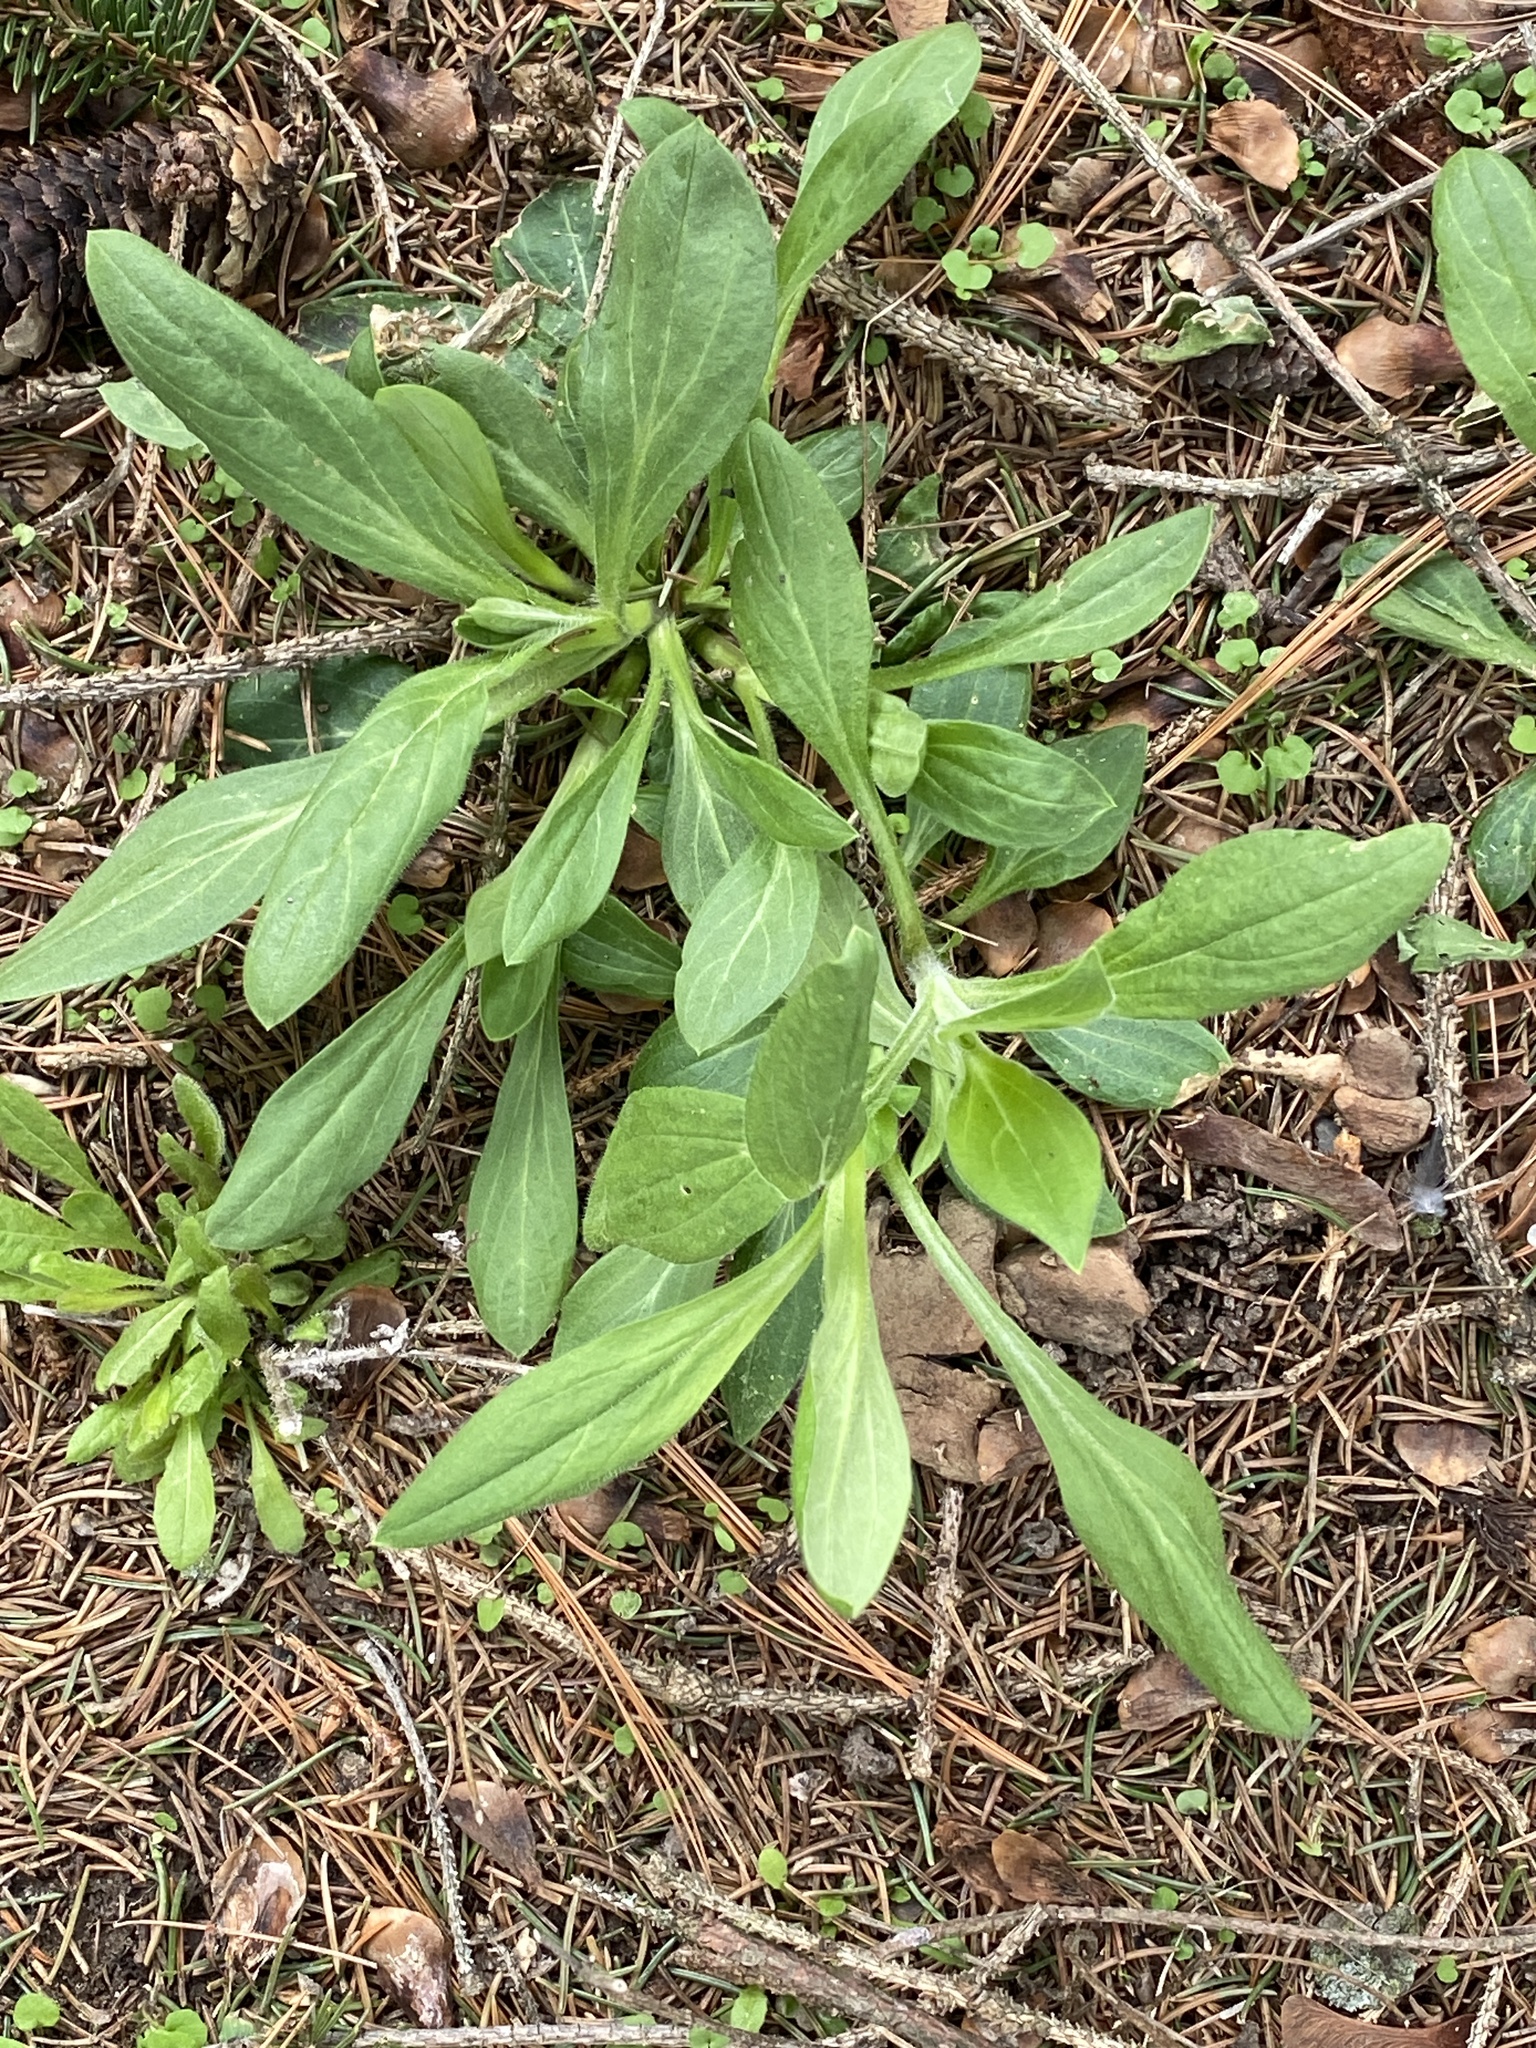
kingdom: Plantae
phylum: Tracheophyta
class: Magnoliopsida
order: Caryophyllales
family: Caryophyllaceae
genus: Silene
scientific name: Silene latifolia
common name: White campion
